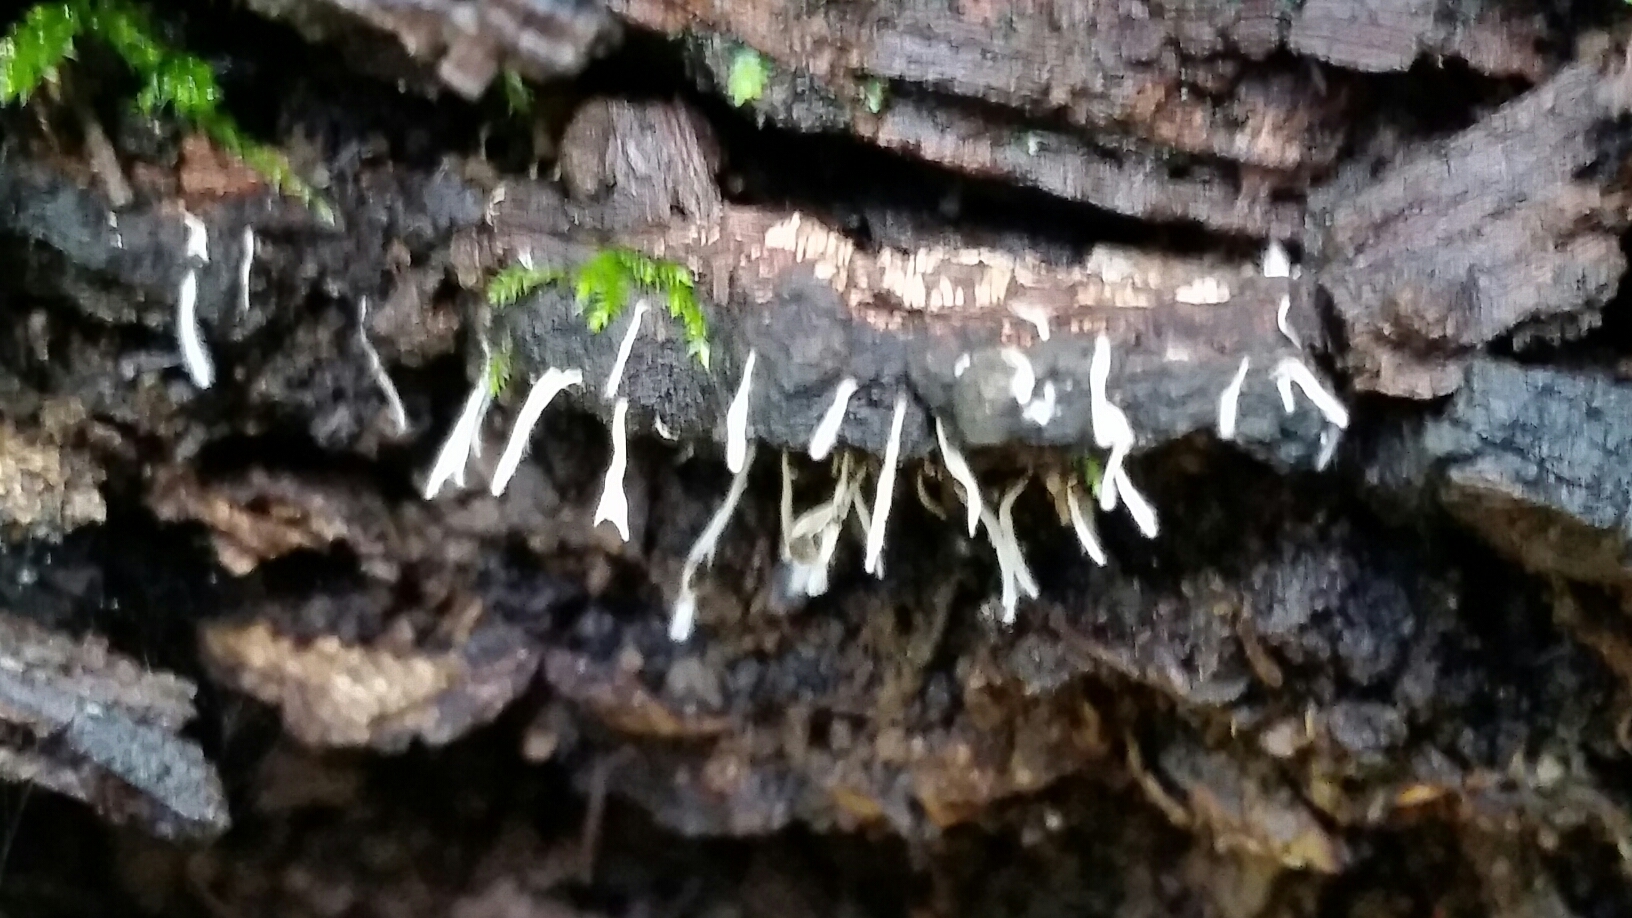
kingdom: Fungi
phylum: Ascomycota
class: Sordariomycetes
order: Xylariales
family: Xylariaceae
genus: Xylaria
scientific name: Xylaria hypoxylon
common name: Candle-snuff fungus
